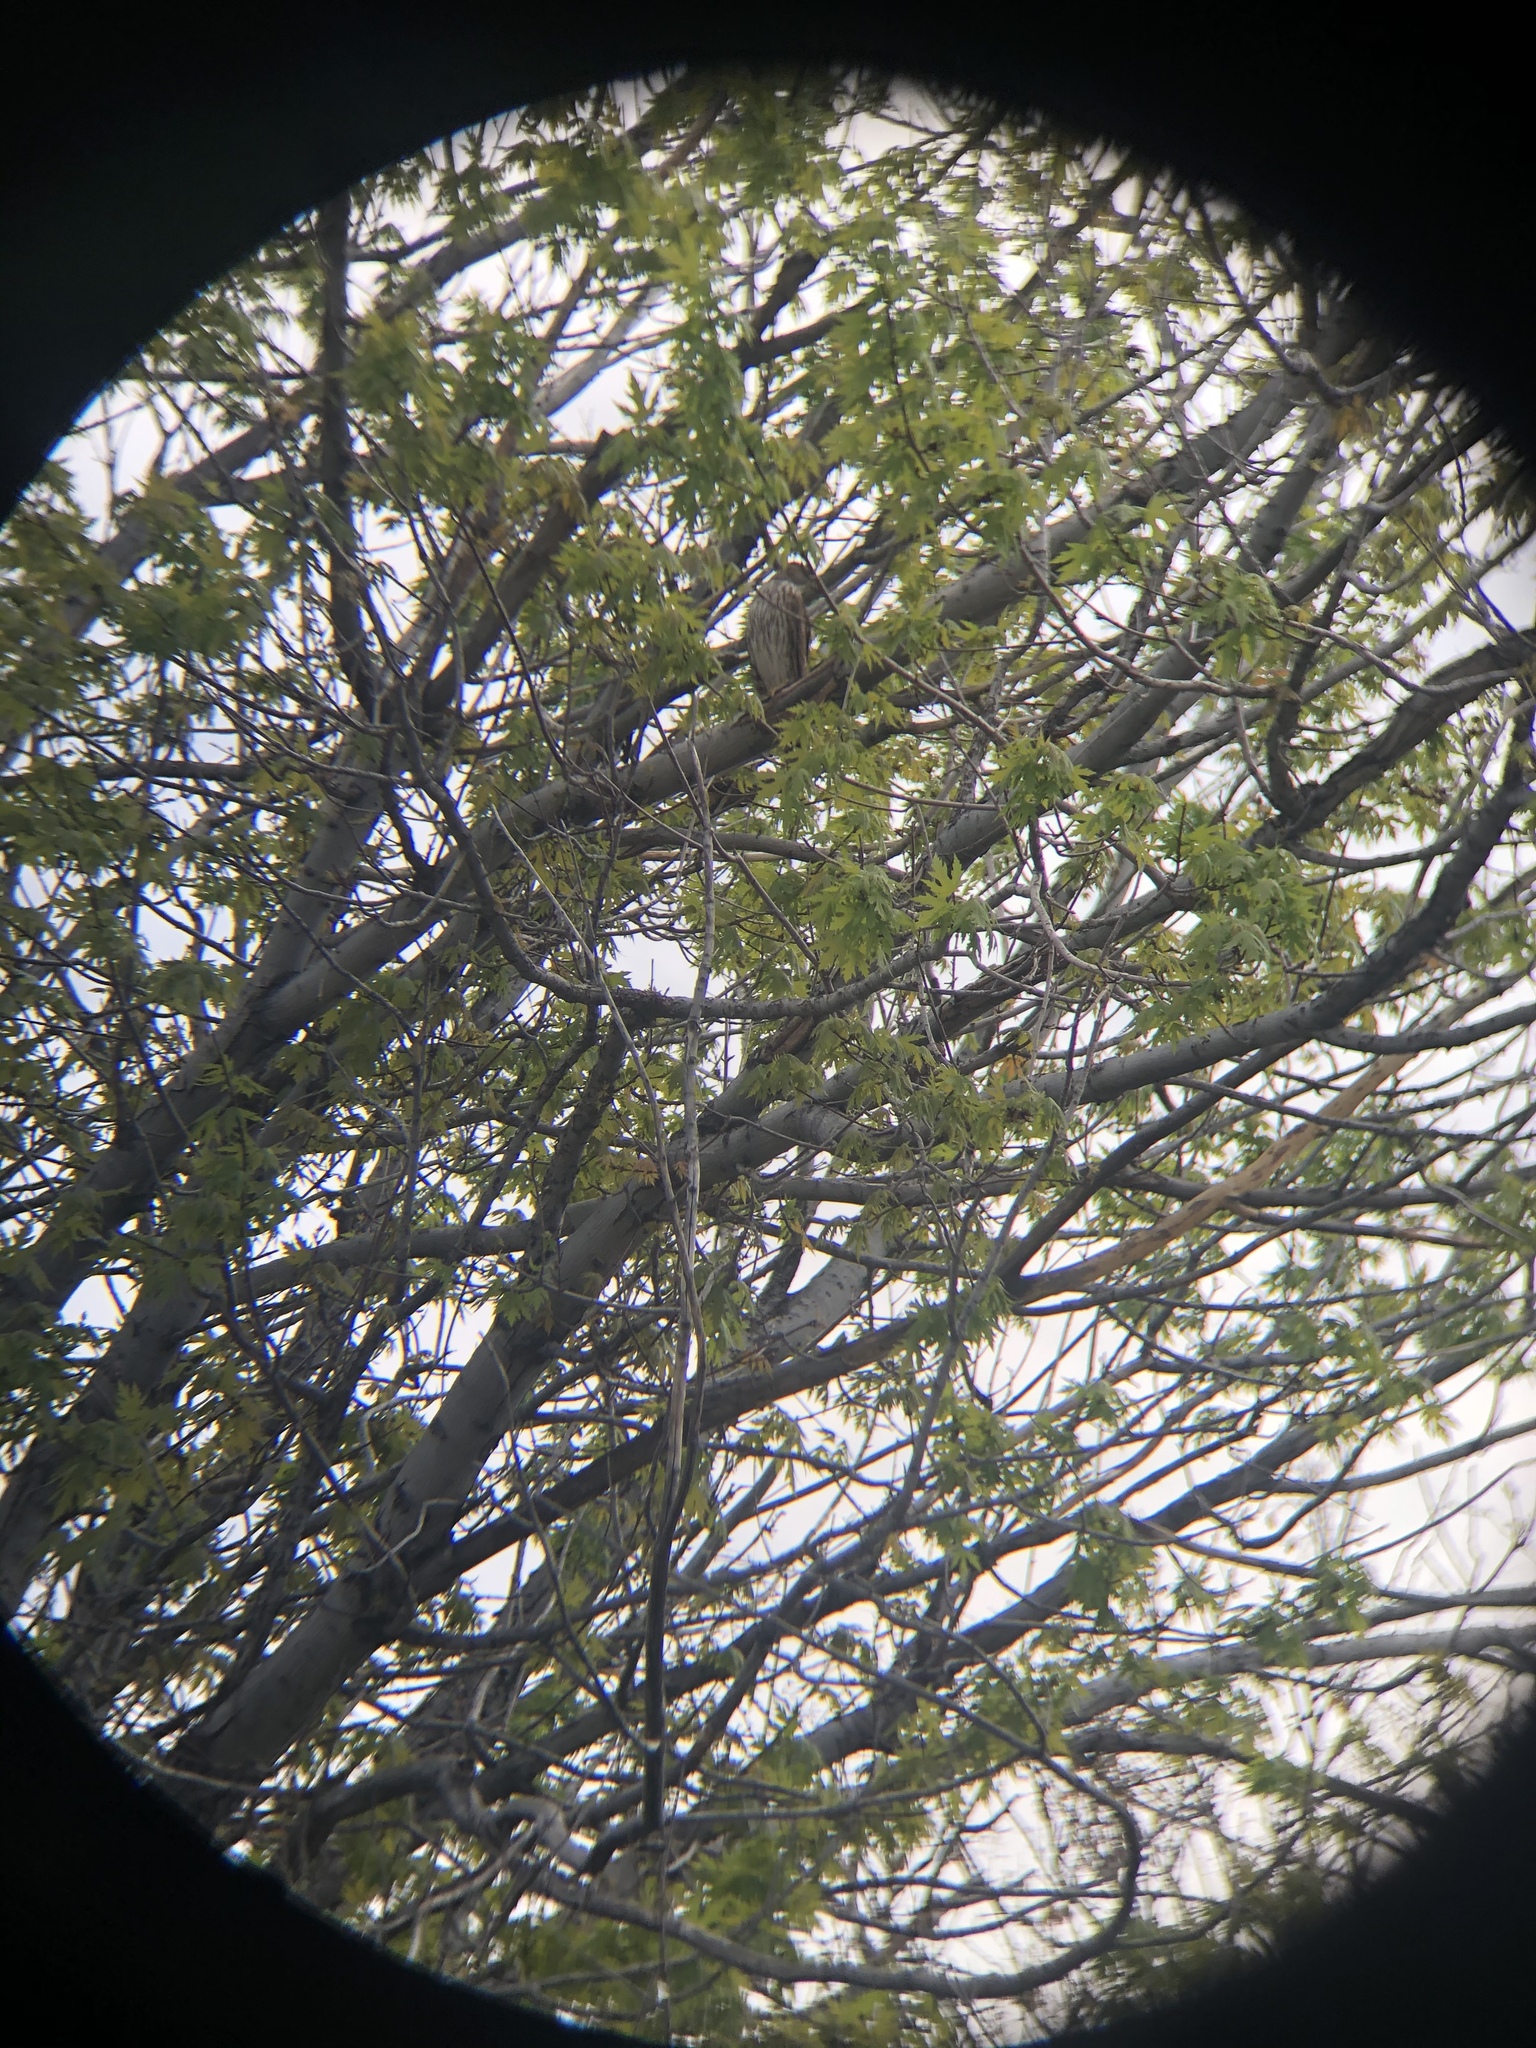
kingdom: Animalia
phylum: Chordata
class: Aves
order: Accipitriformes
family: Accipitridae
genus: Accipiter
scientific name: Accipiter cooperii
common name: Cooper's hawk
